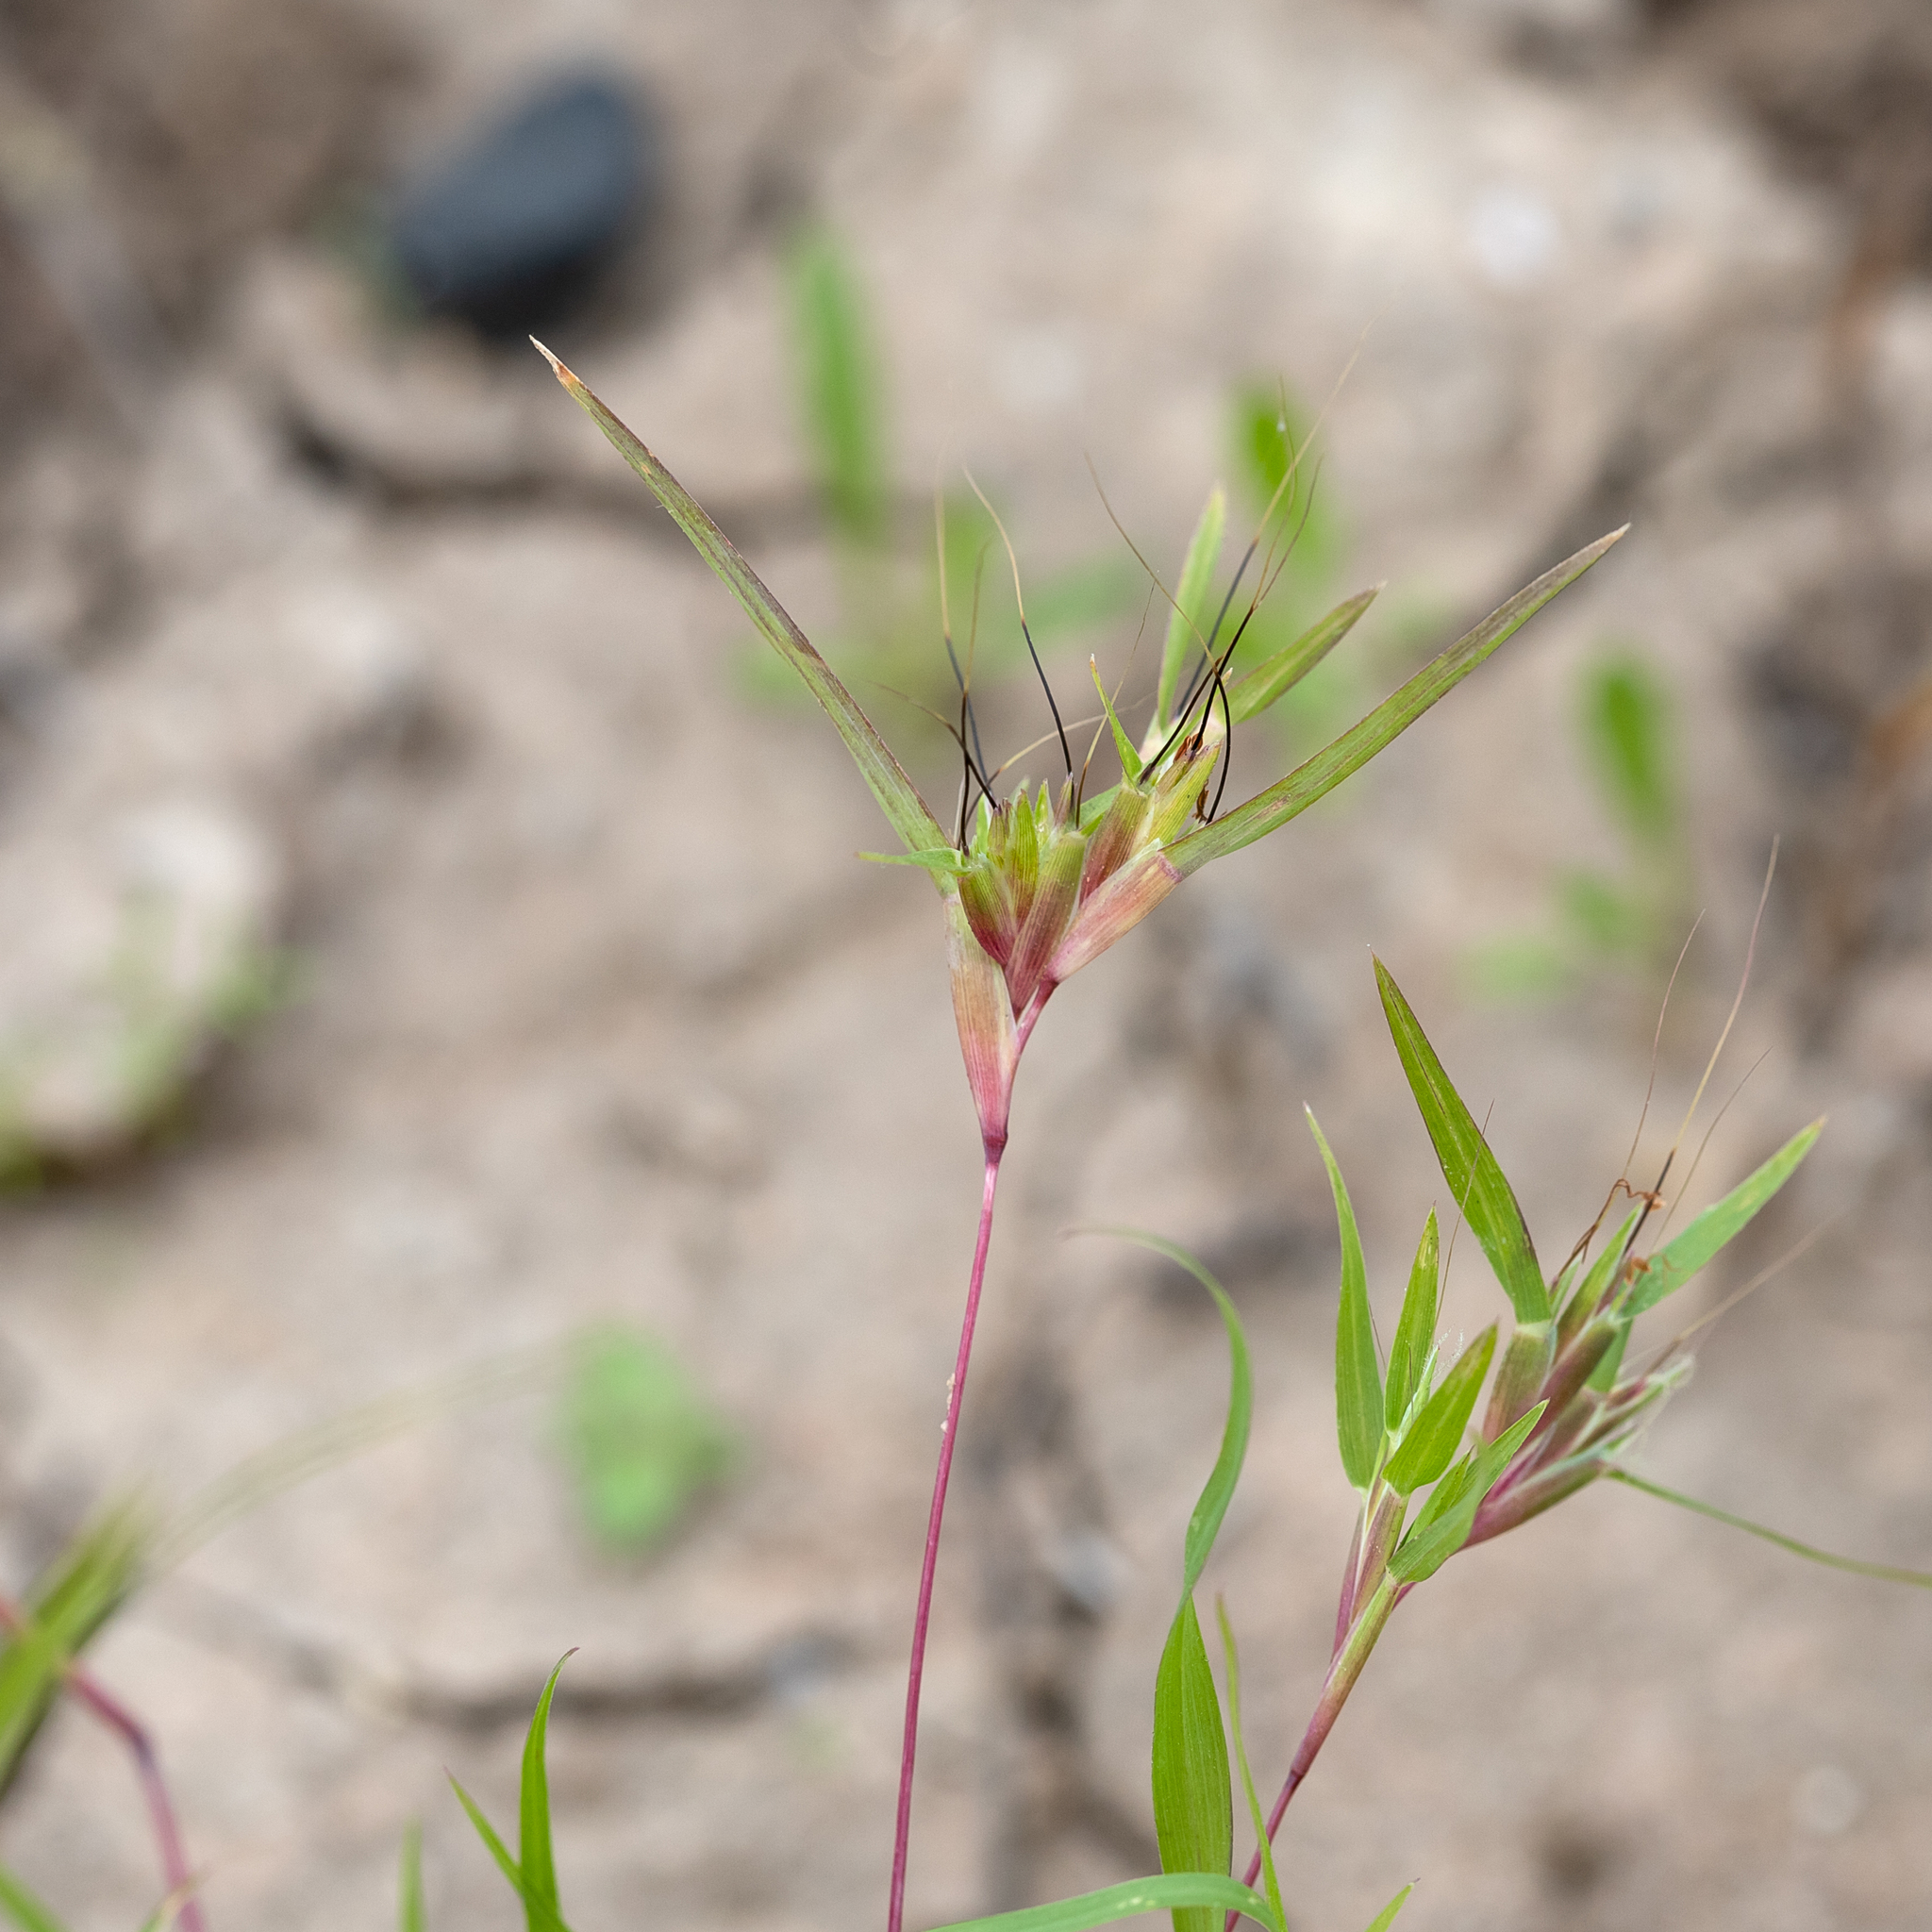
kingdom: Plantae
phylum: Tracheophyta
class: Liliopsida
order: Poales
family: Poaceae
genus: Iseilema
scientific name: Iseilema vaginiflorum
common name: Red flinders grass
